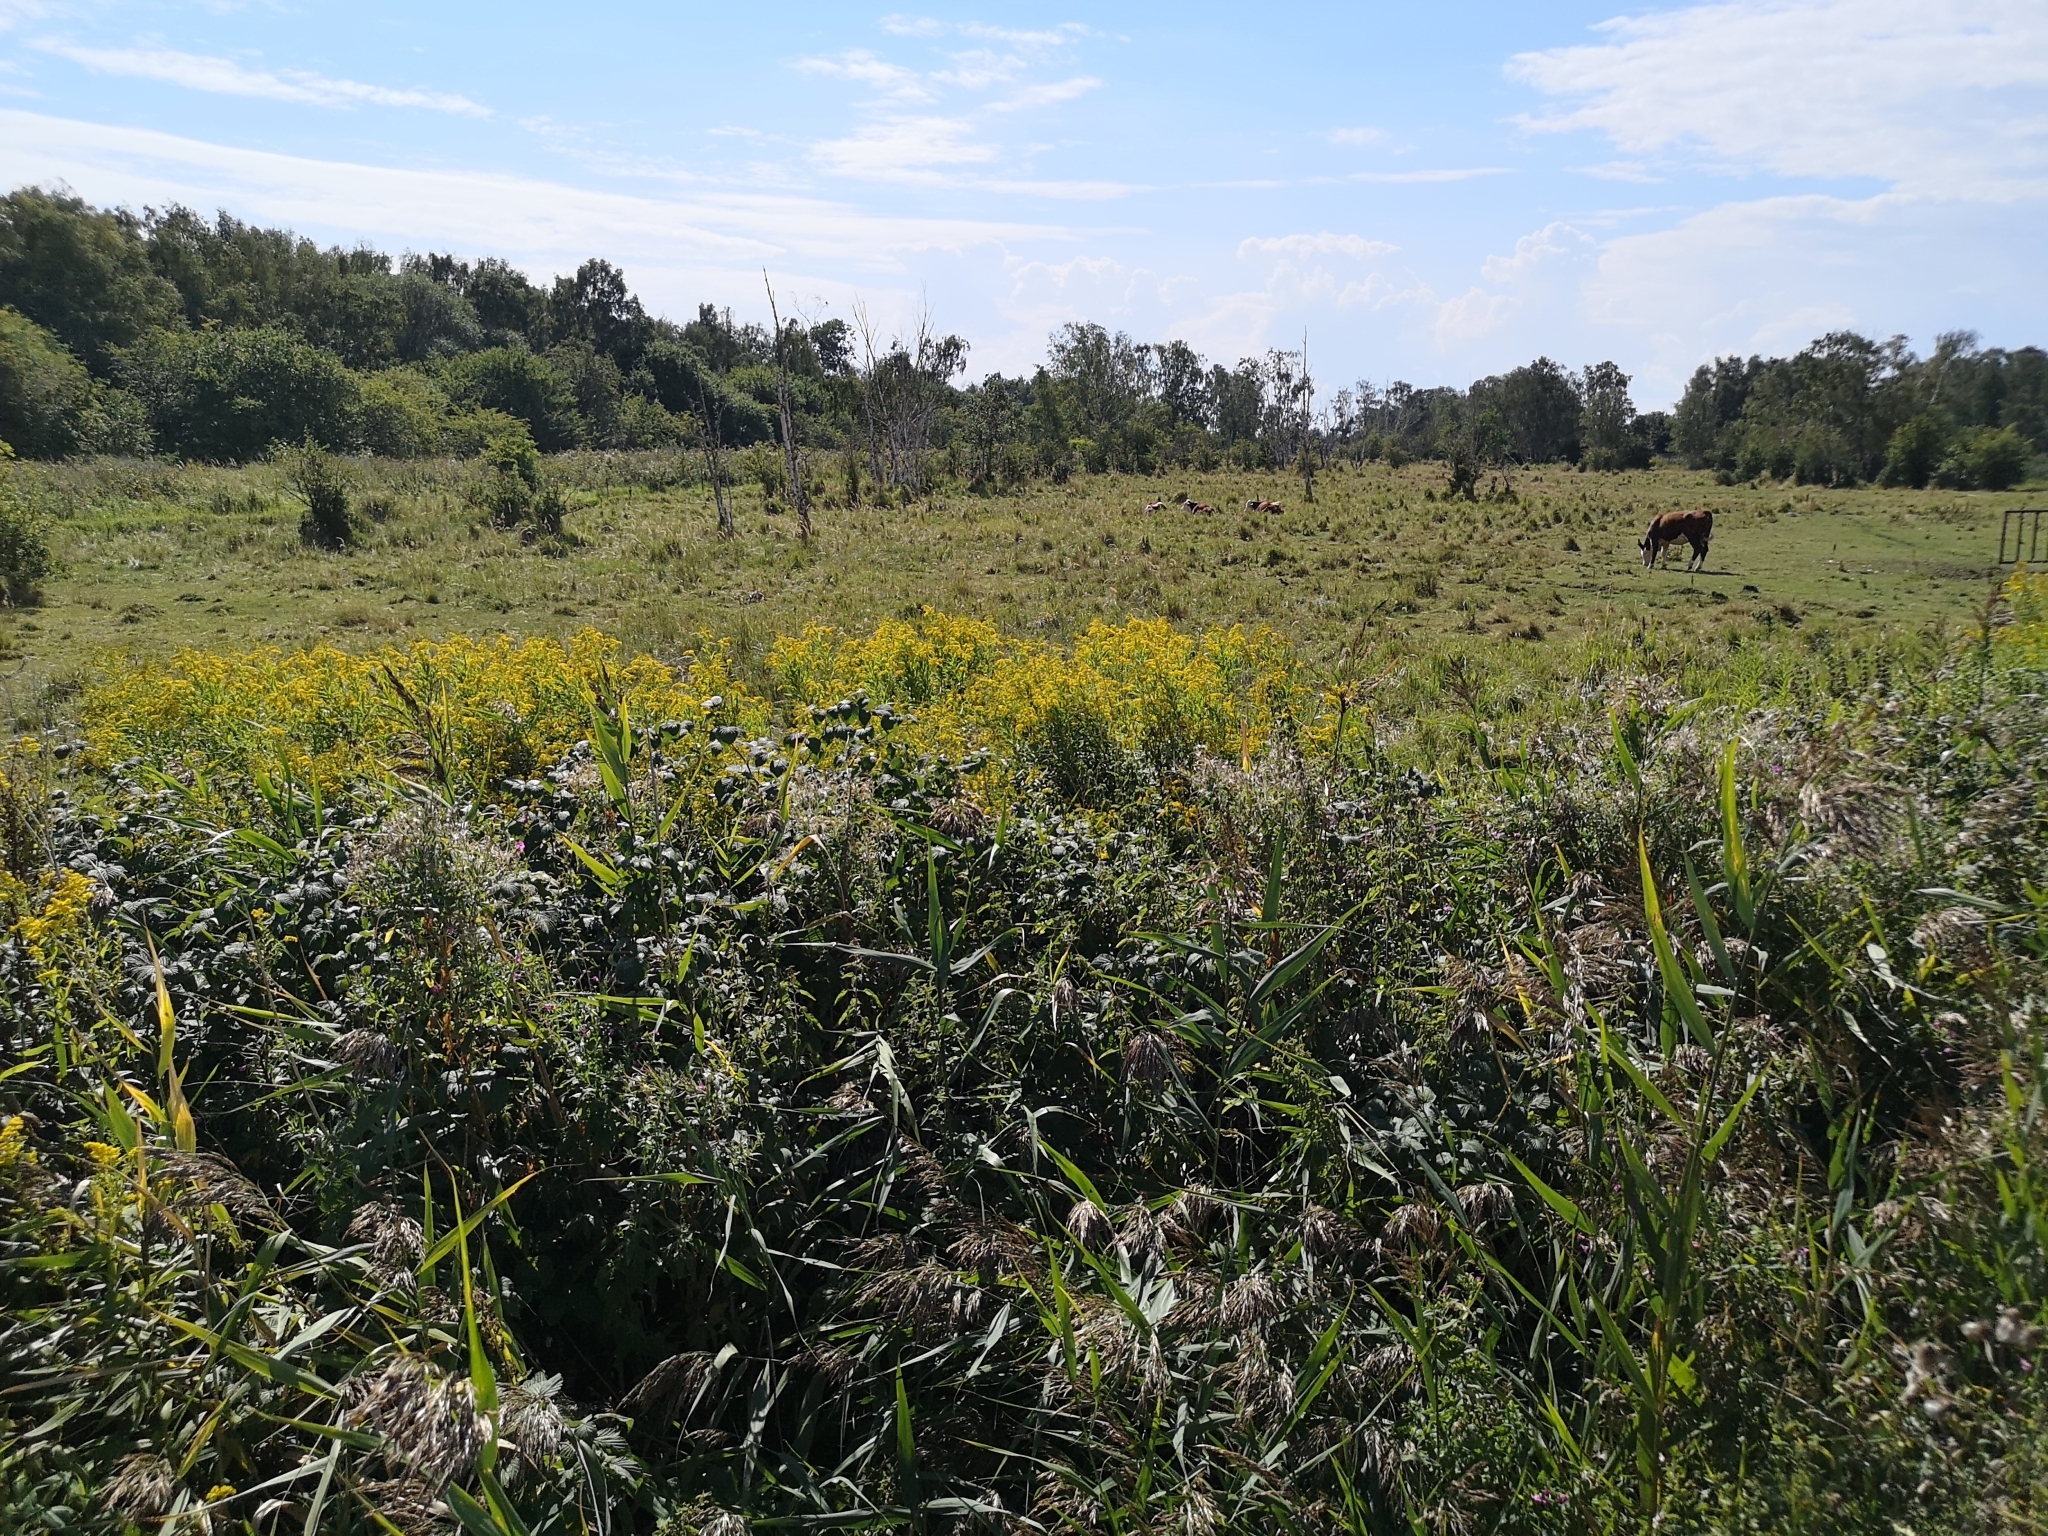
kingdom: Plantae
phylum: Tracheophyta
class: Magnoliopsida
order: Asterales
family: Asteraceae
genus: Solidago
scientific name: Solidago gigantea
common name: Giant goldenrod
